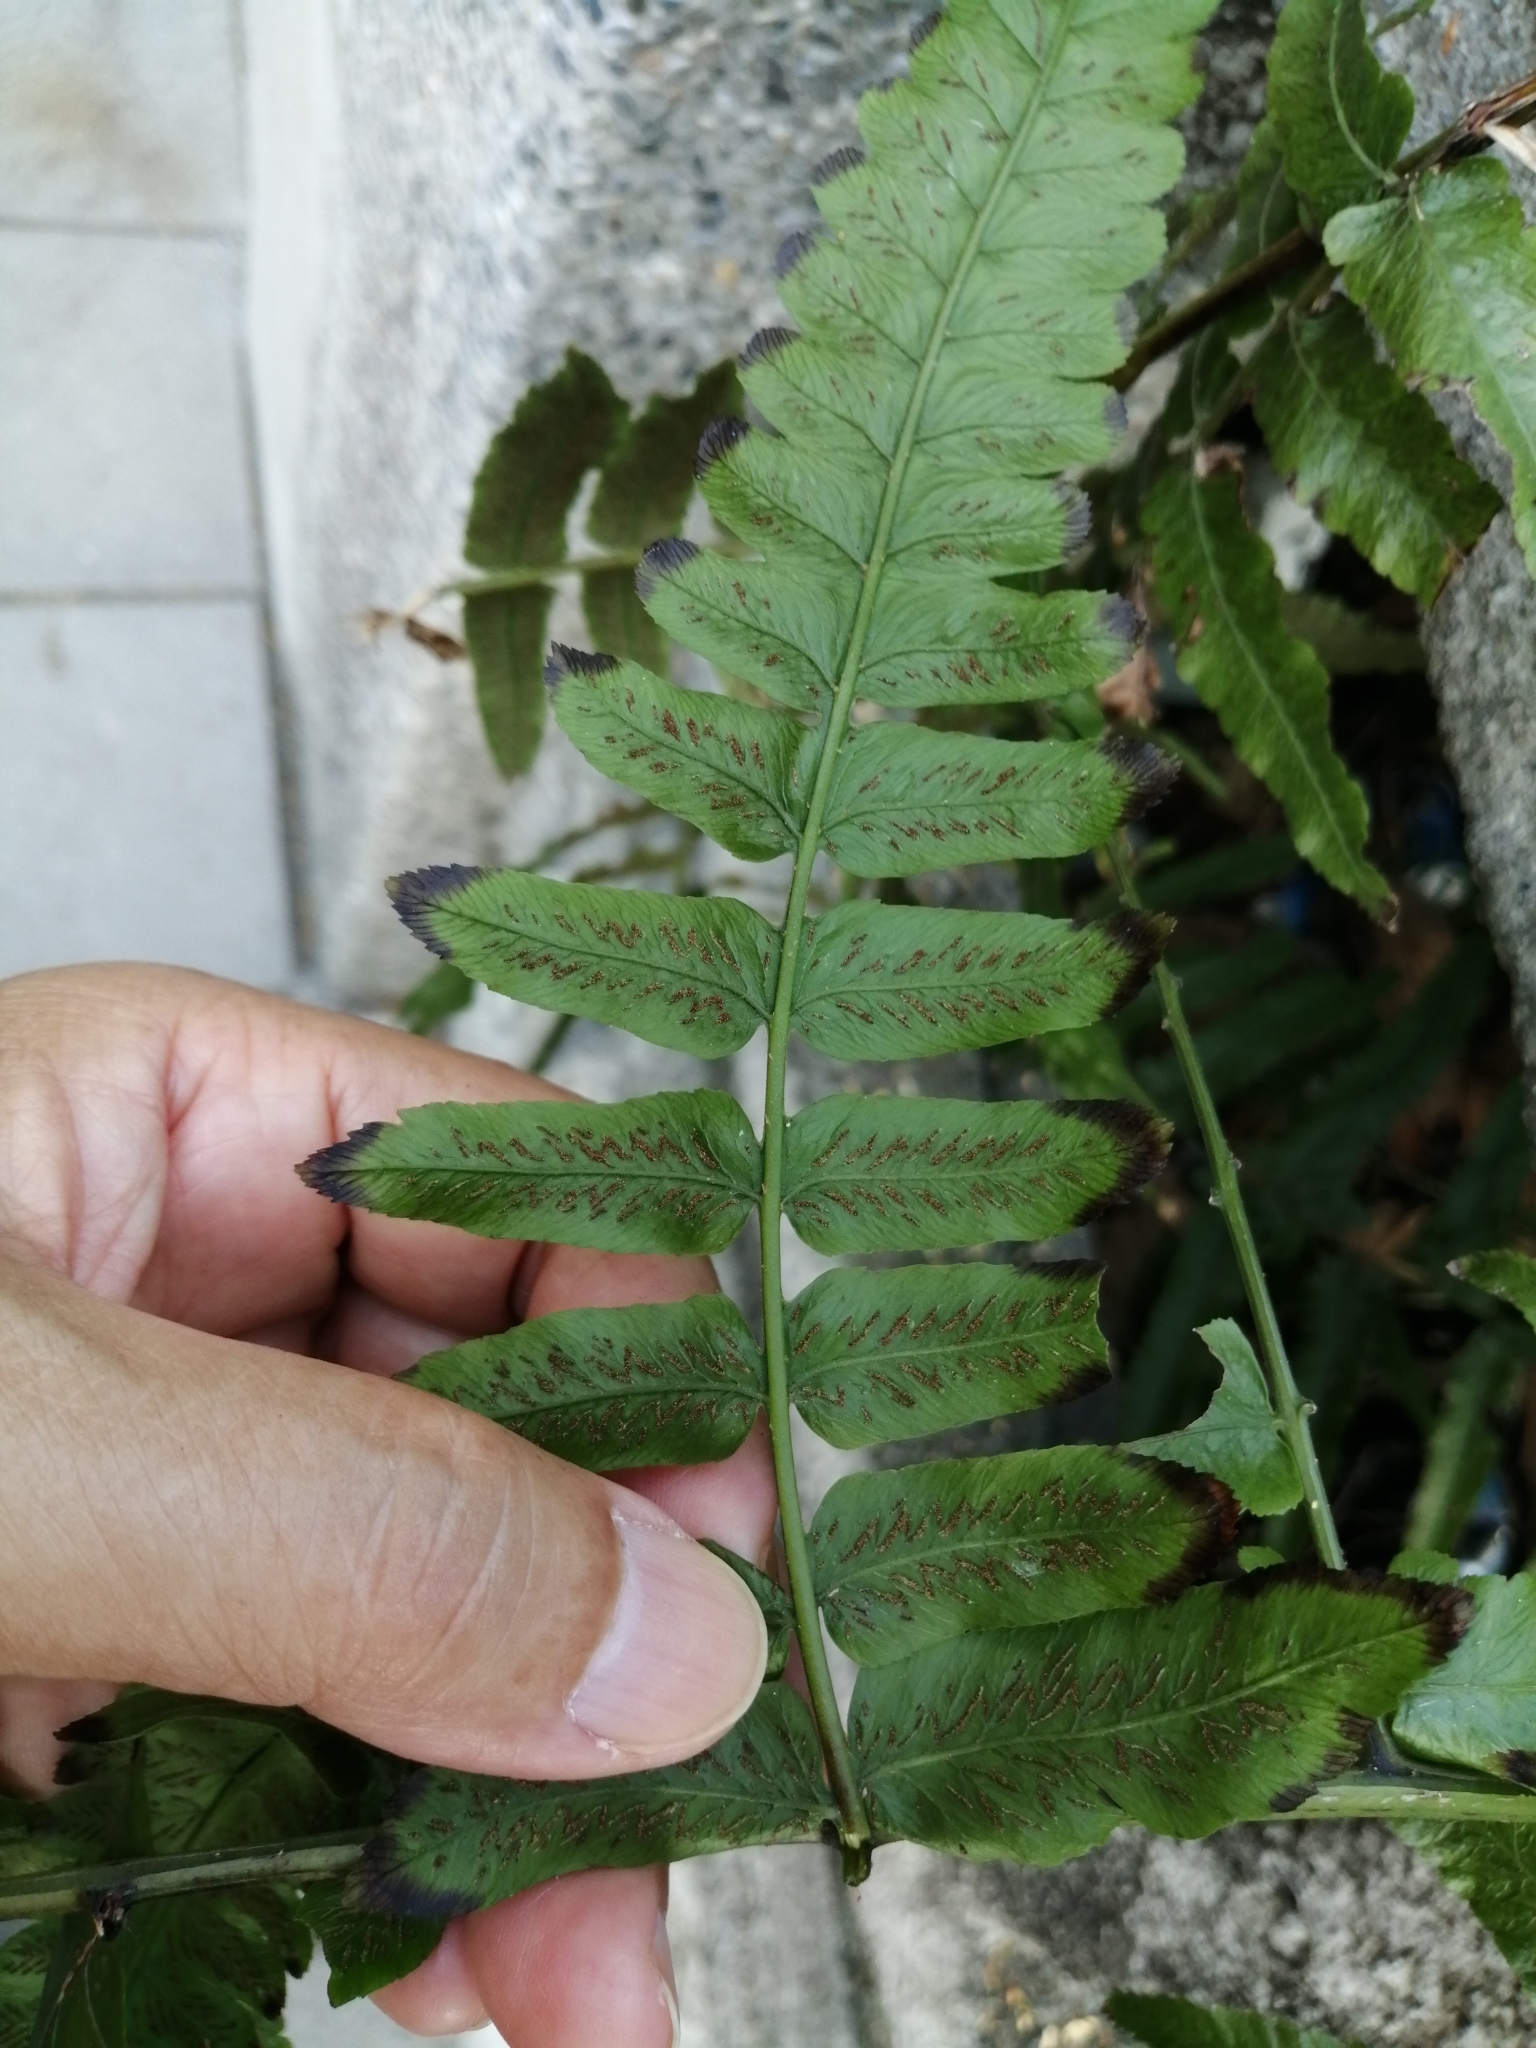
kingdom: Plantae
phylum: Tracheophyta
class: Polypodiopsida
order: Polypodiales
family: Athyriaceae
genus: Diplazium
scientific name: Diplazium esculentum
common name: Vegetable fern
